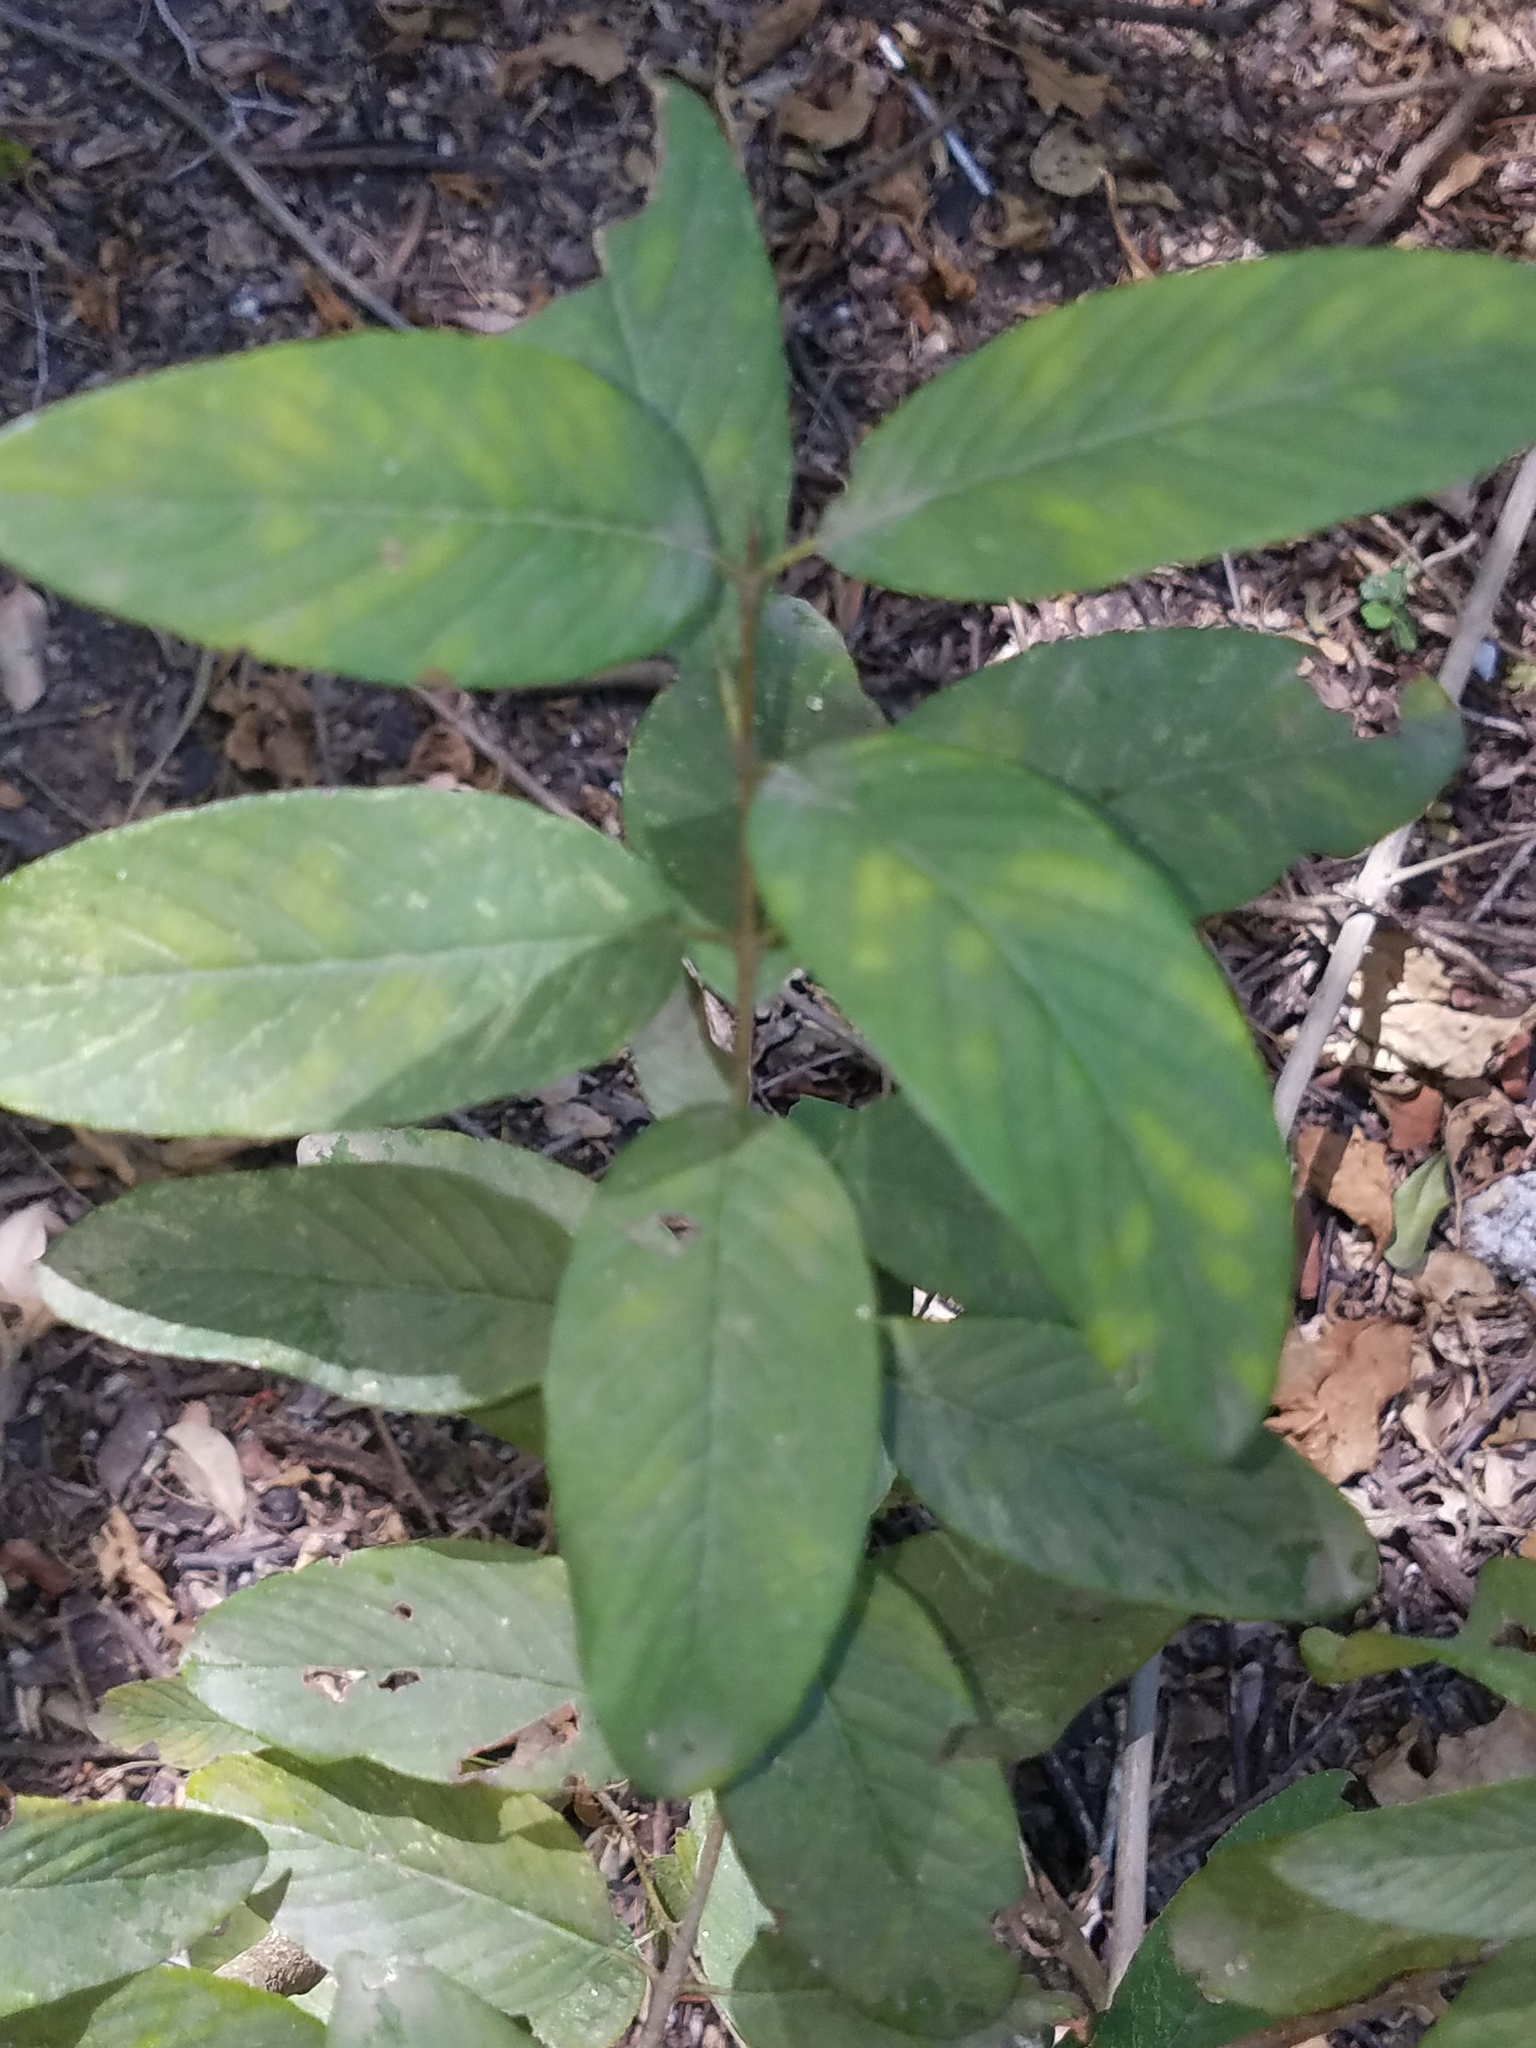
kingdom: Plantae
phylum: Tracheophyta
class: Magnoliopsida
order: Rosales
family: Rhamnaceae
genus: Karwinskia
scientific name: Karwinskia humboldtiana
